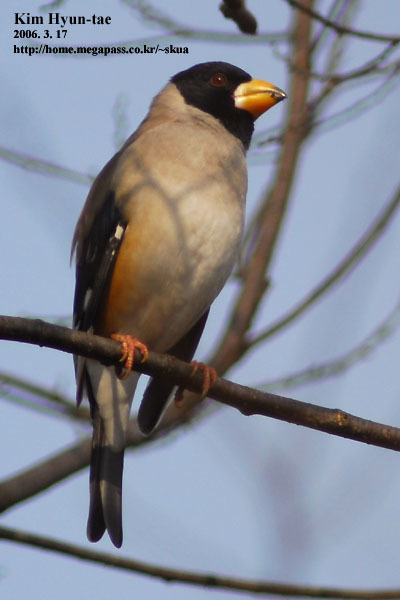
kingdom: Animalia
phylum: Chordata
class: Aves
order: Passeriformes
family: Fringillidae
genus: Eophona
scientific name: Eophona migratoria
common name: Yellow-billed grosbeak
